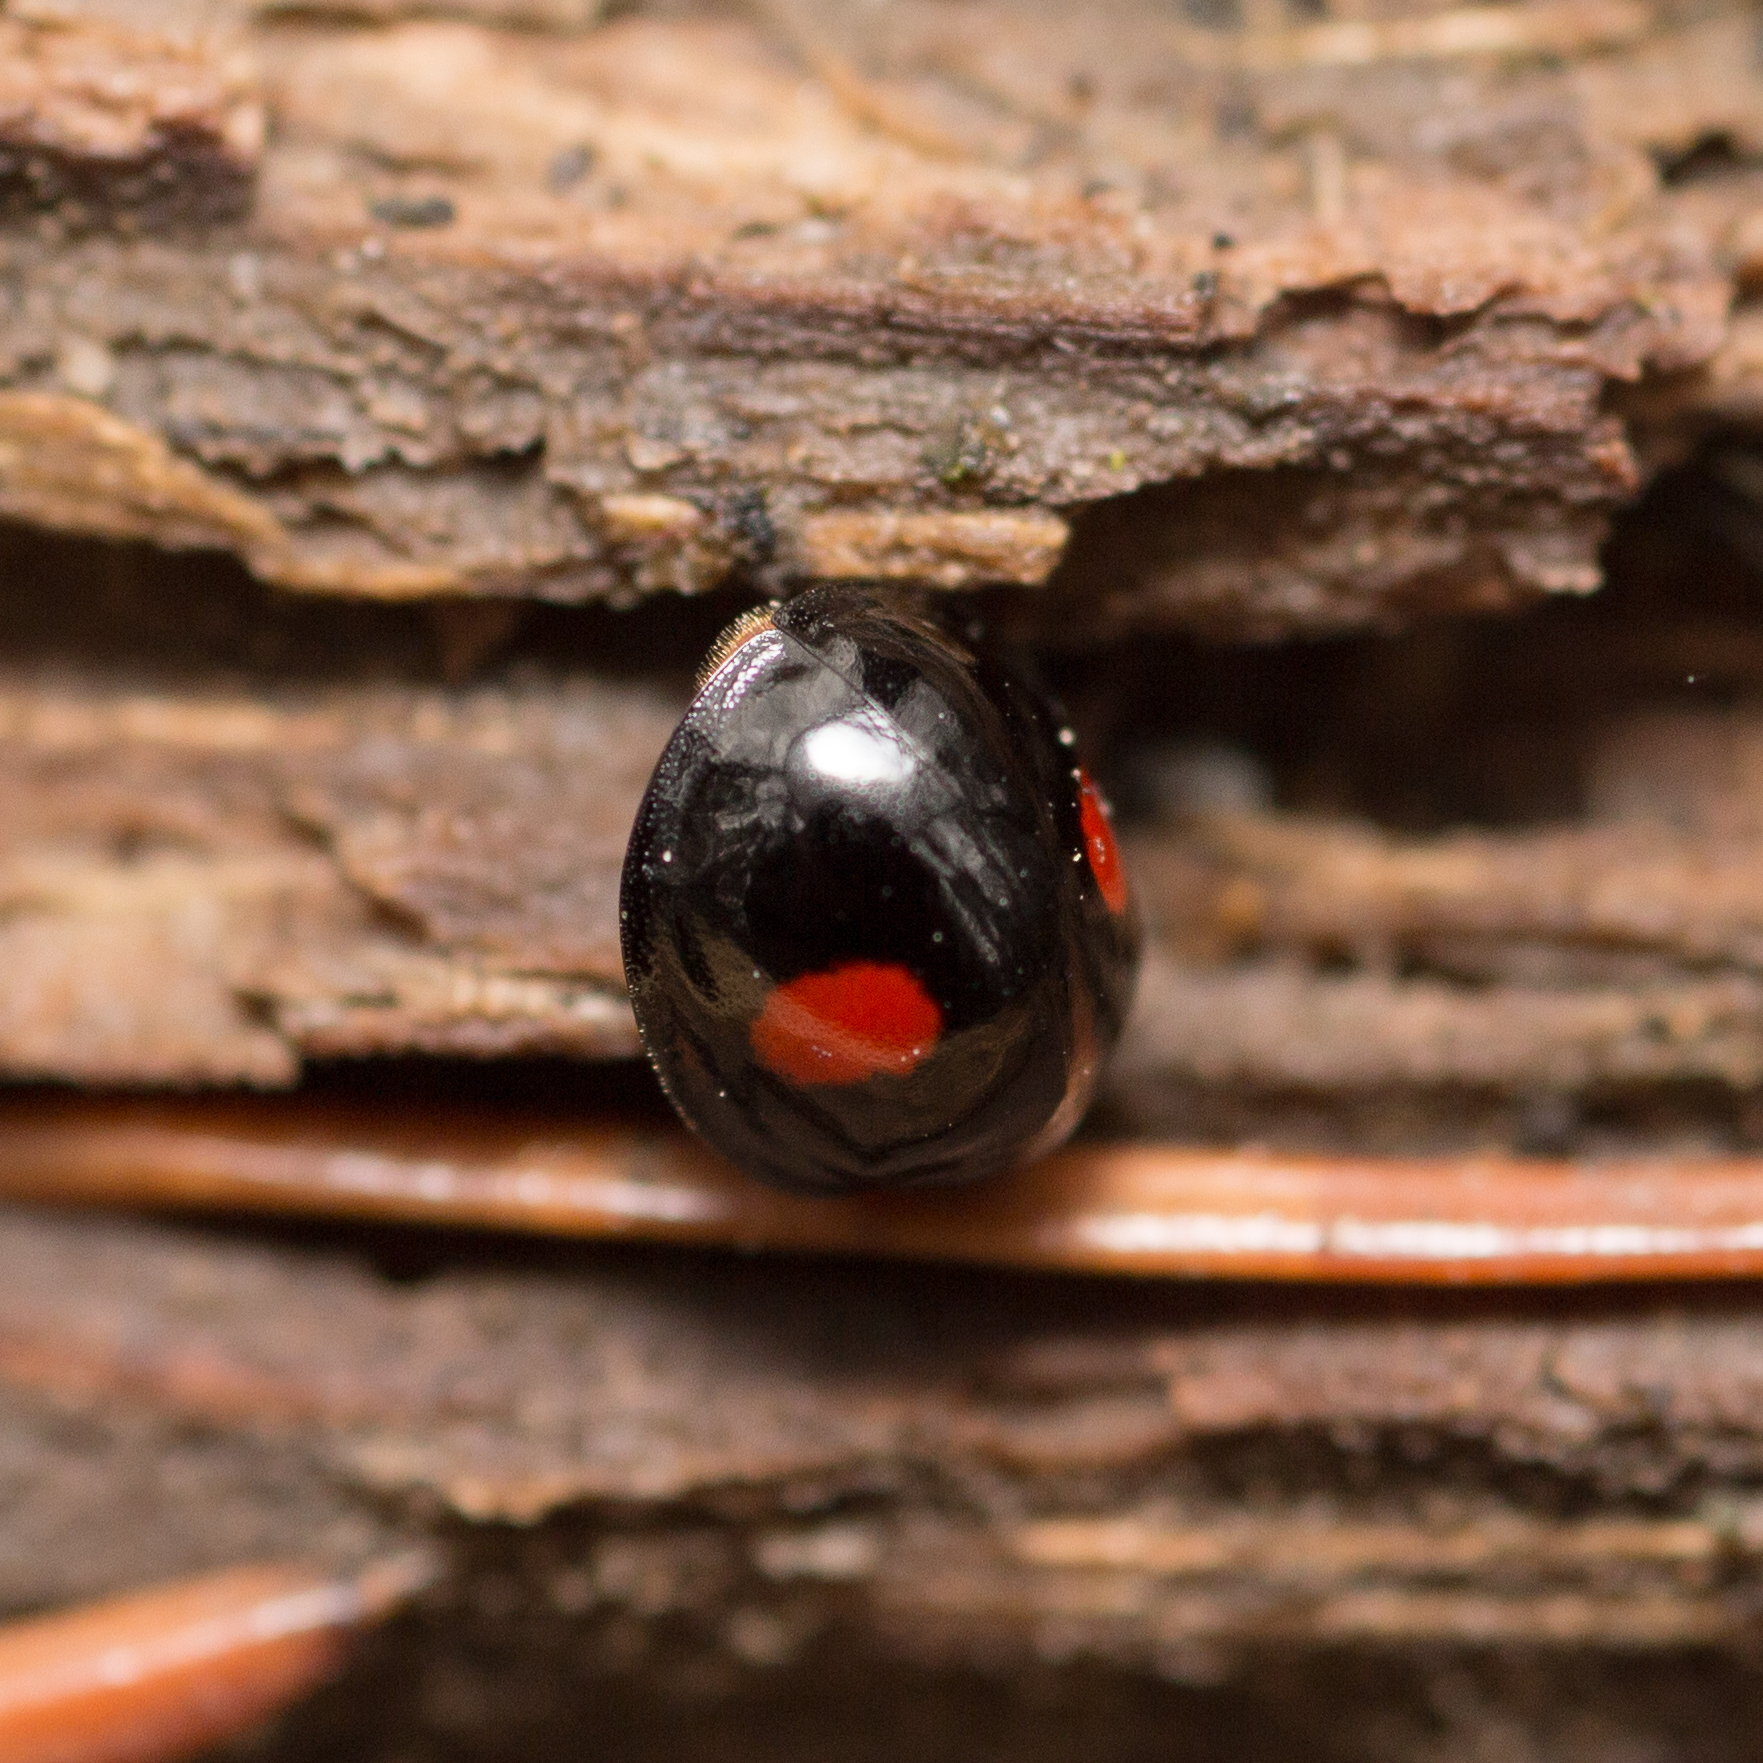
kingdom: Animalia
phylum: Arthropoda
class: Insecta
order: Coleoptera
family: Coccinellidae
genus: Chilocorus
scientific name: Chilocorus renipustulatus
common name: Kidney-spot ladybird
